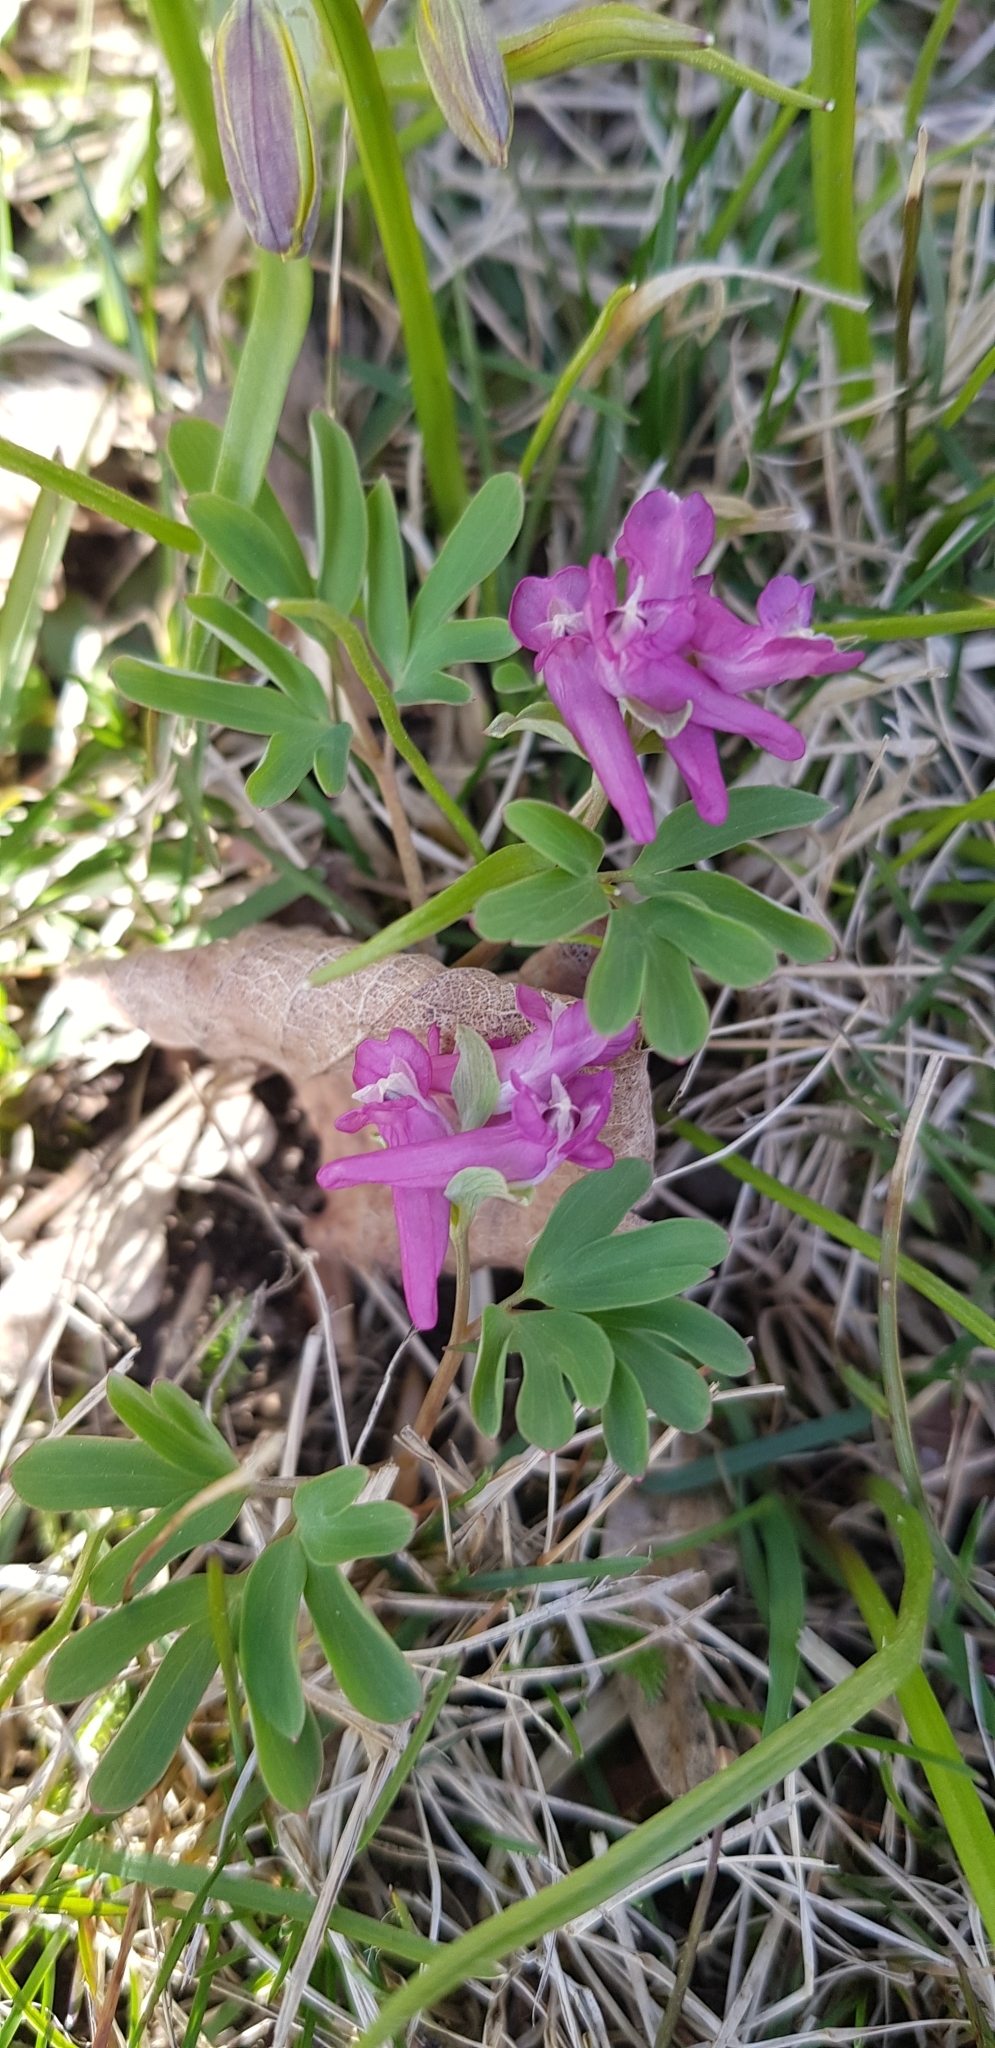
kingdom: Plantae
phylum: Tracheophyta
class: Magnoliopsida
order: Ranunculales
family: Papaveraceae
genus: Corydalis
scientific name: Corydalis intermedia
